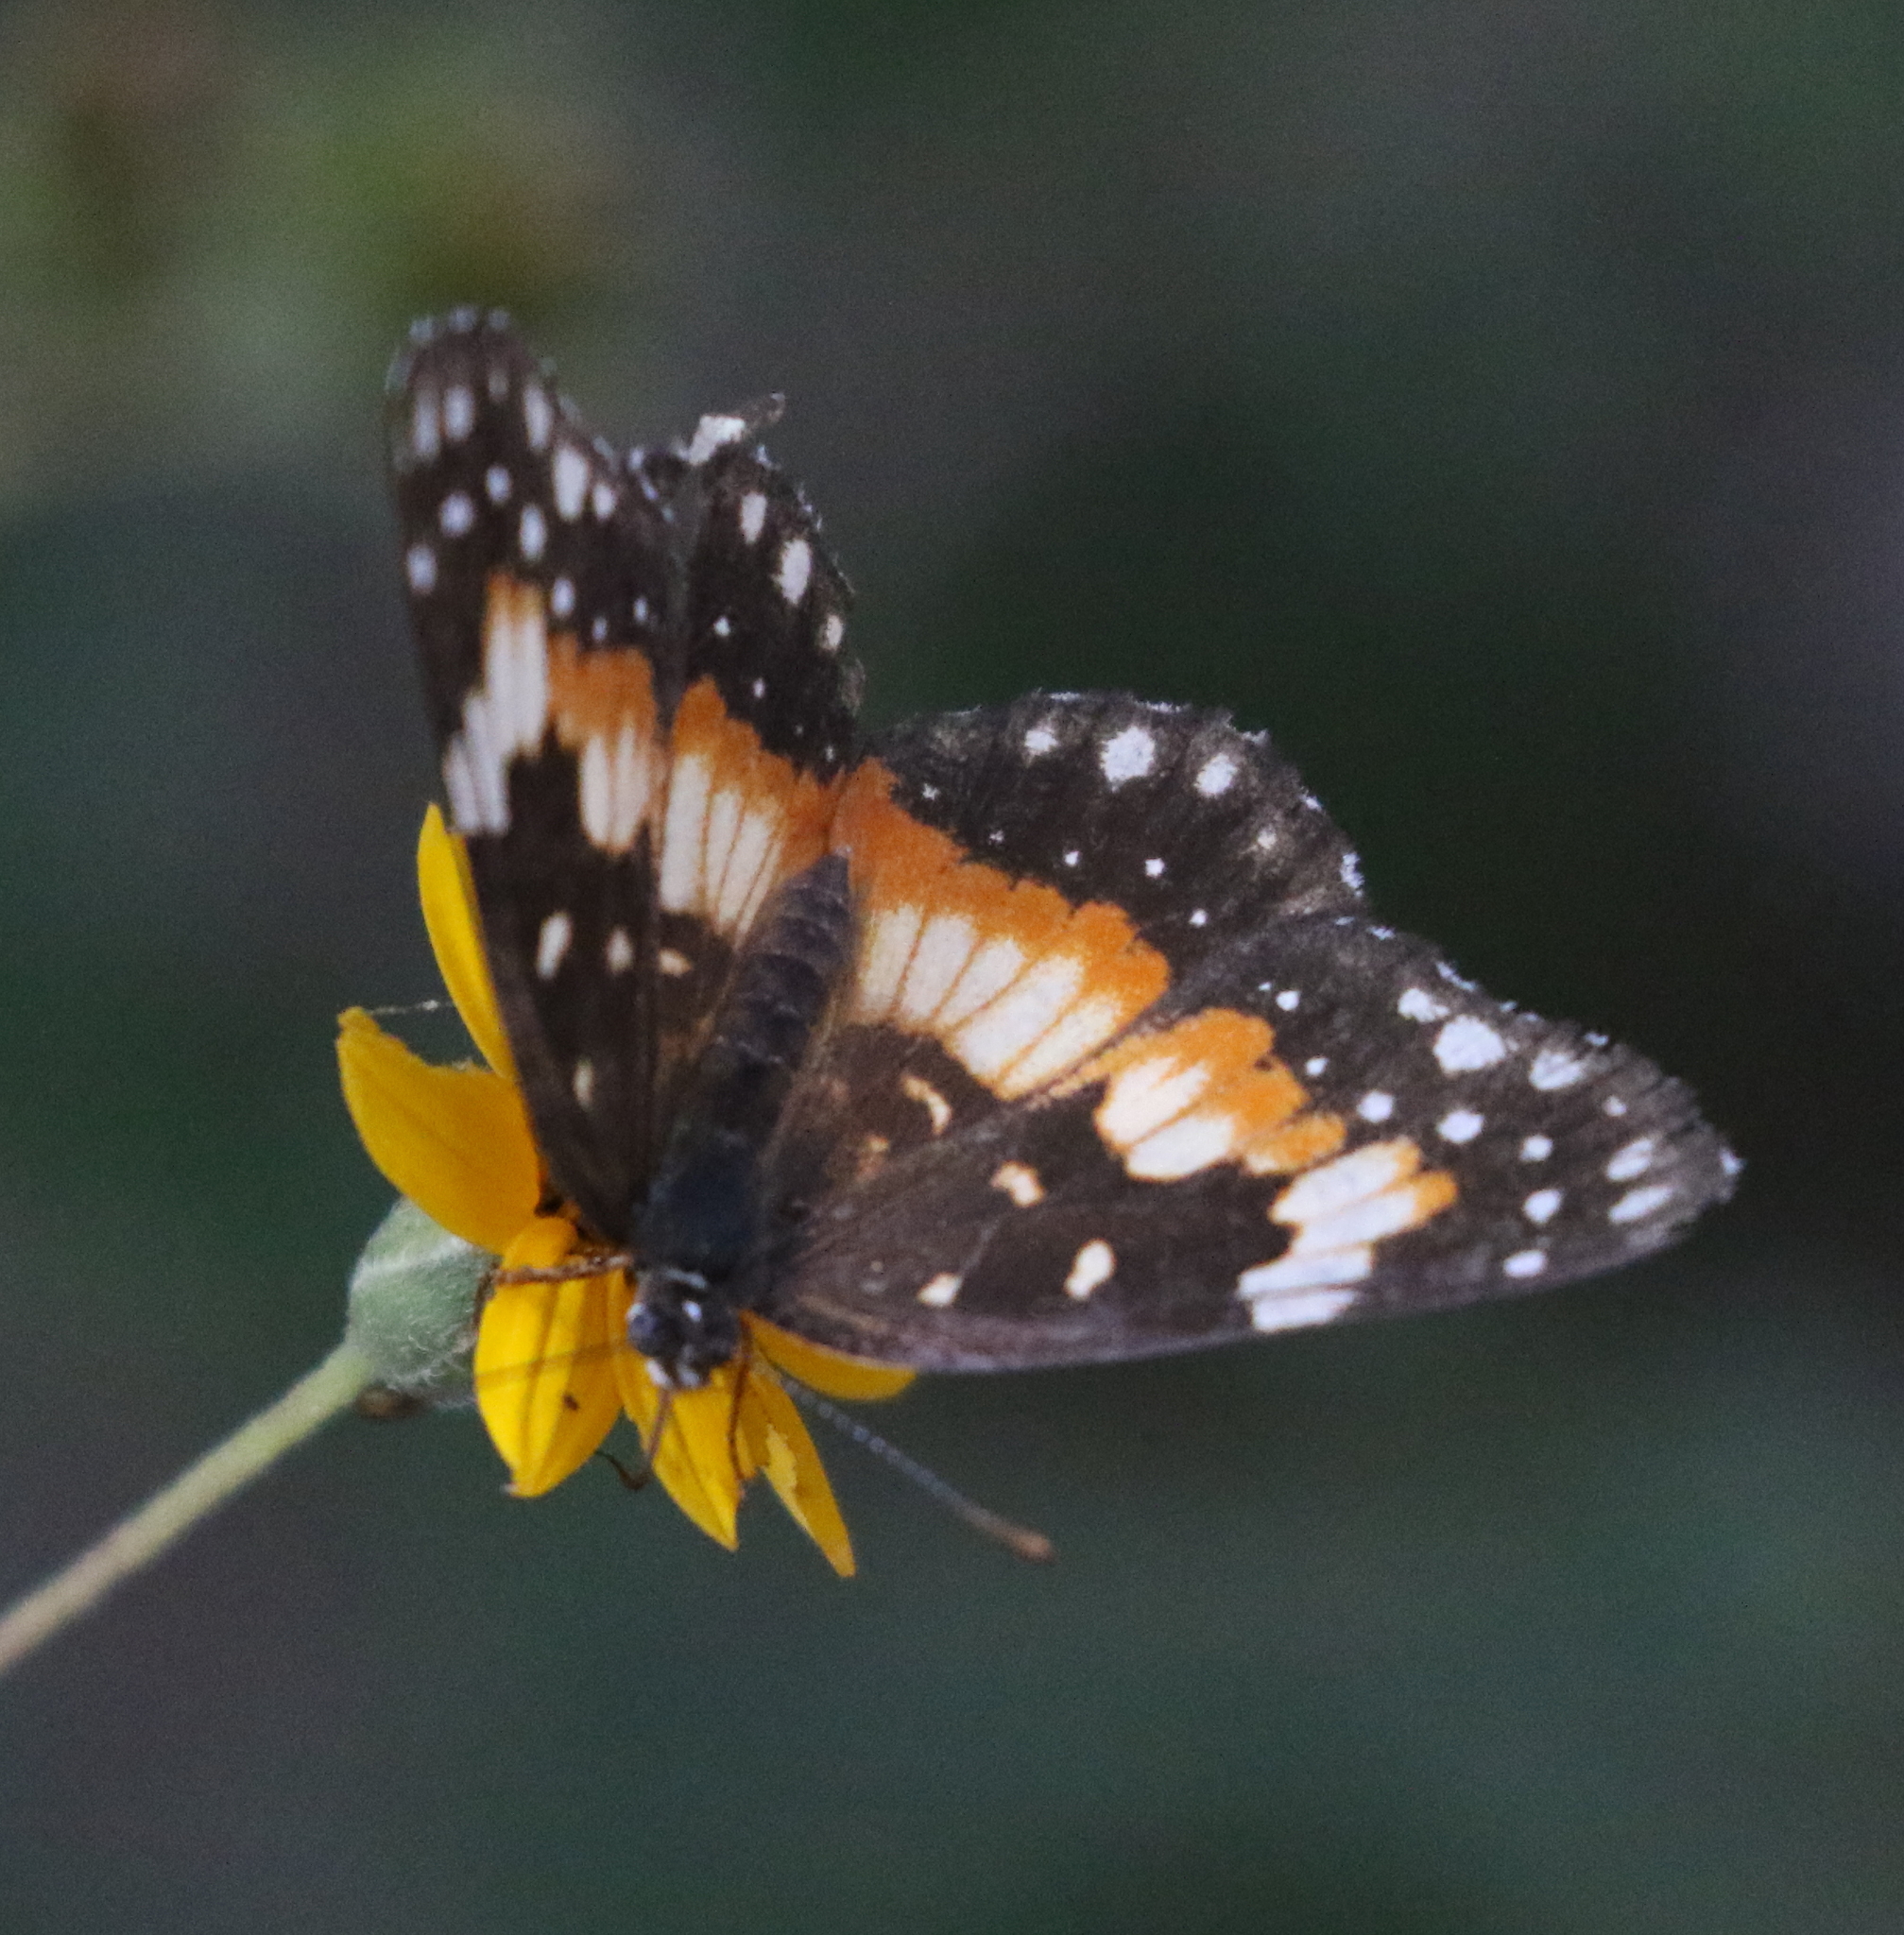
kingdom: Animalia
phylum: Arthropoda
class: Insecta
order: Lepidoptera
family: Nymphalidae
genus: Chlosyne
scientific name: Chlosyne lacinia
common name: Bordered patch
